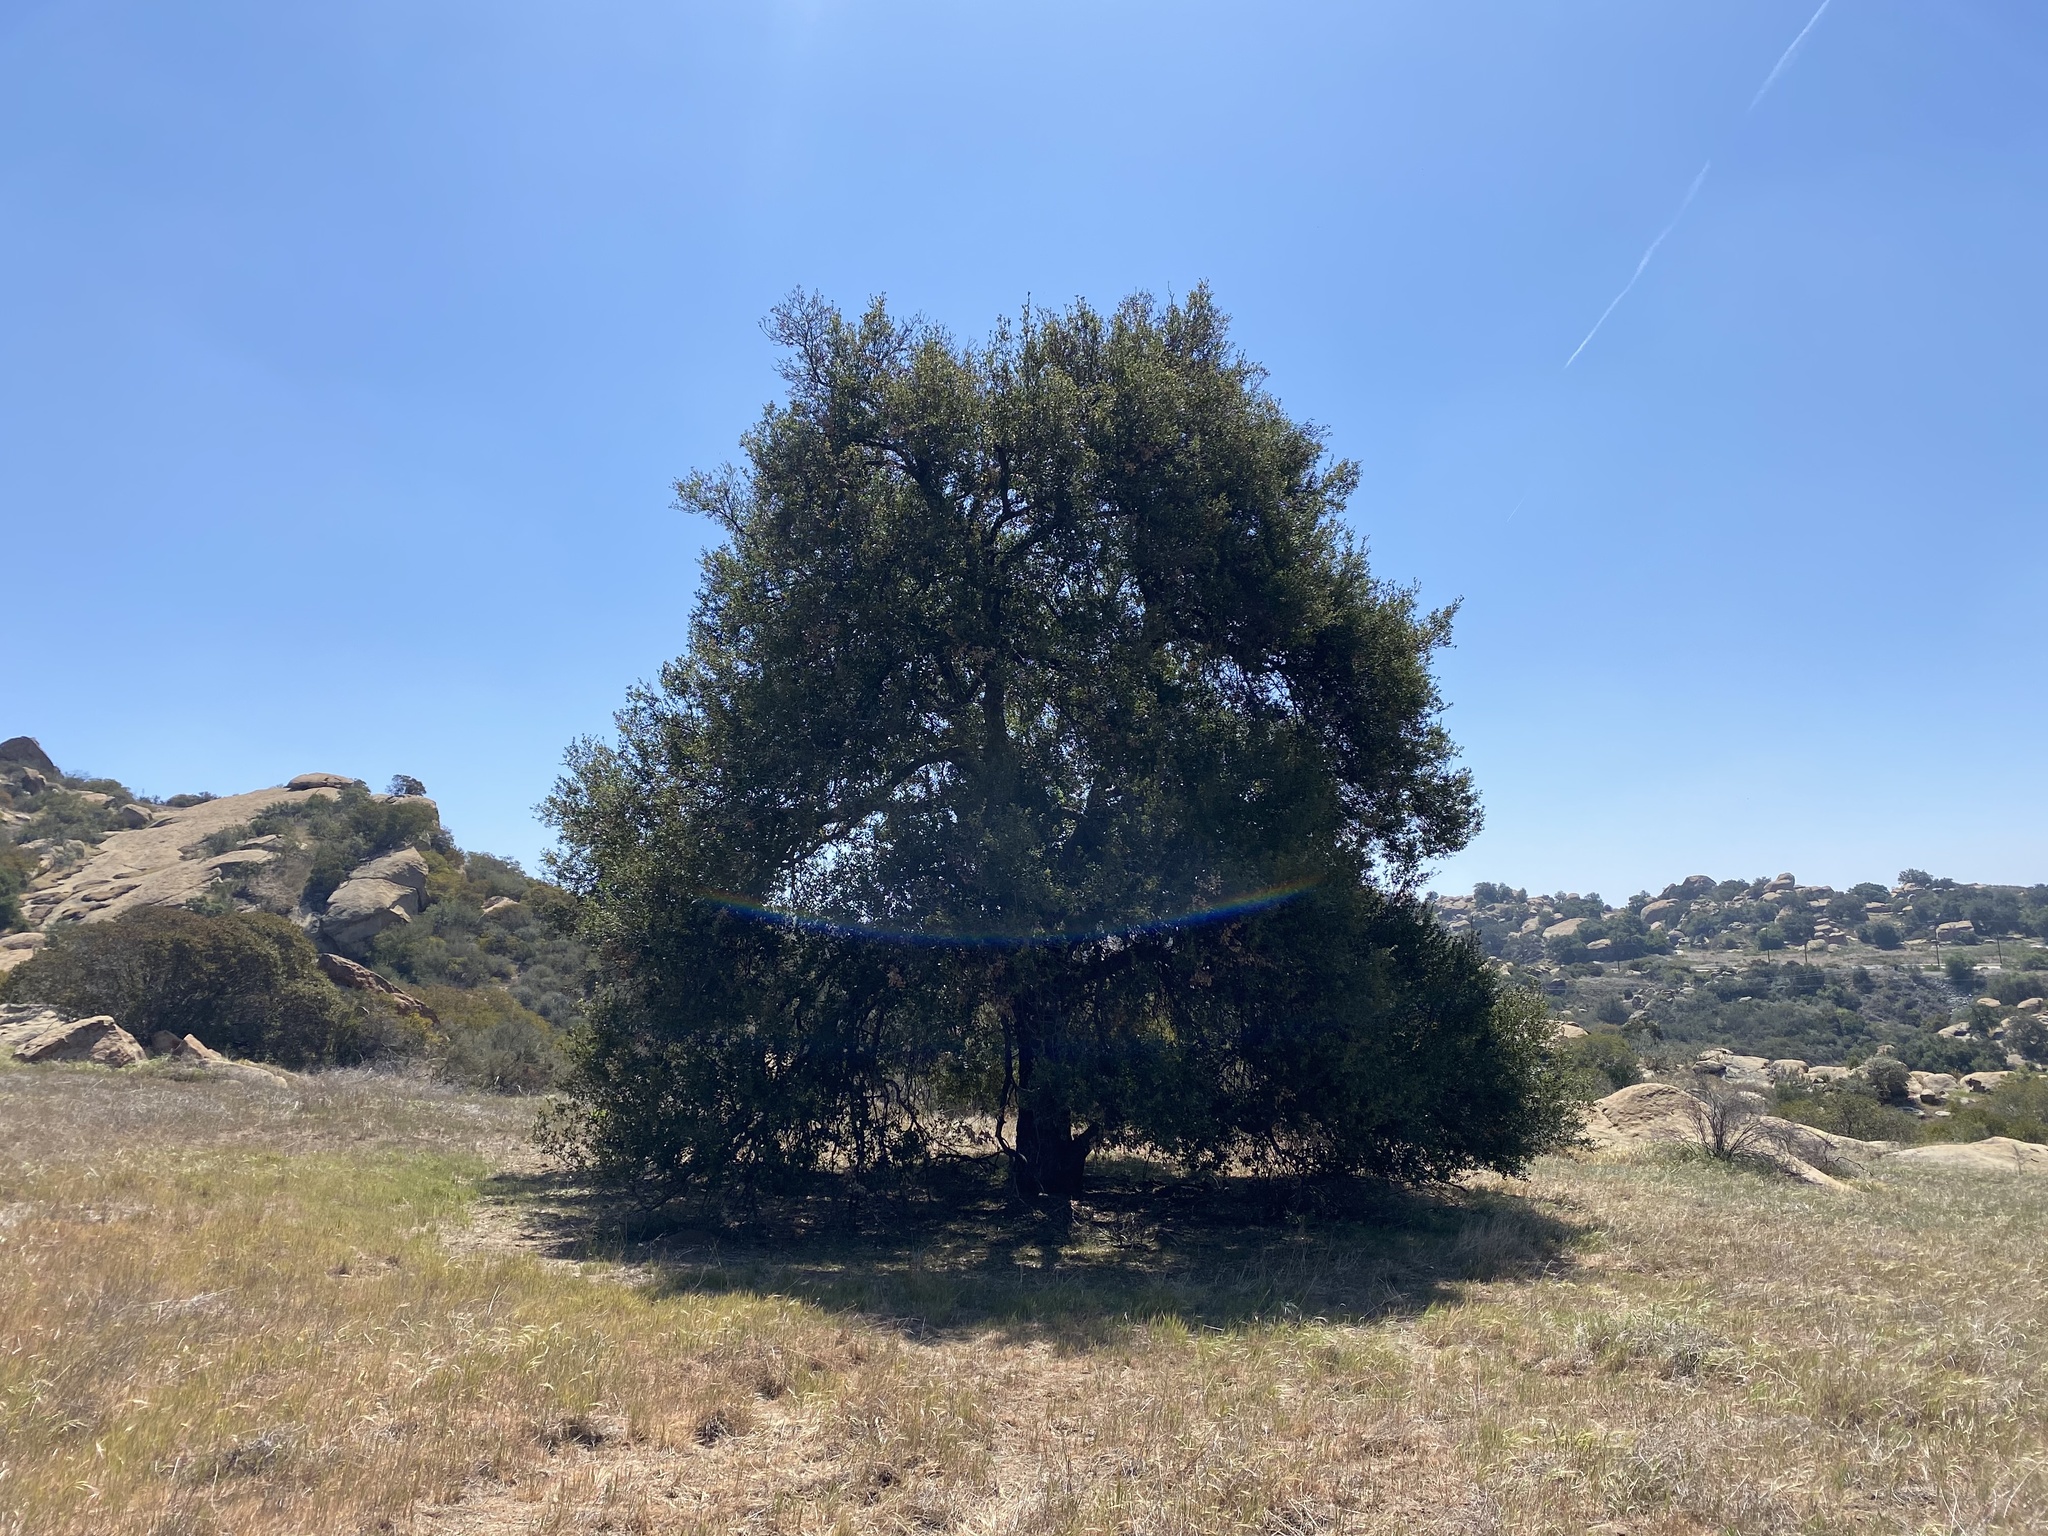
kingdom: Plantae
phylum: Tracheophyta
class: Magnoliopsida
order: Fagales
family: Fagaceae
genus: Quercus
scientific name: Quercus agrifolia
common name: California live oak
